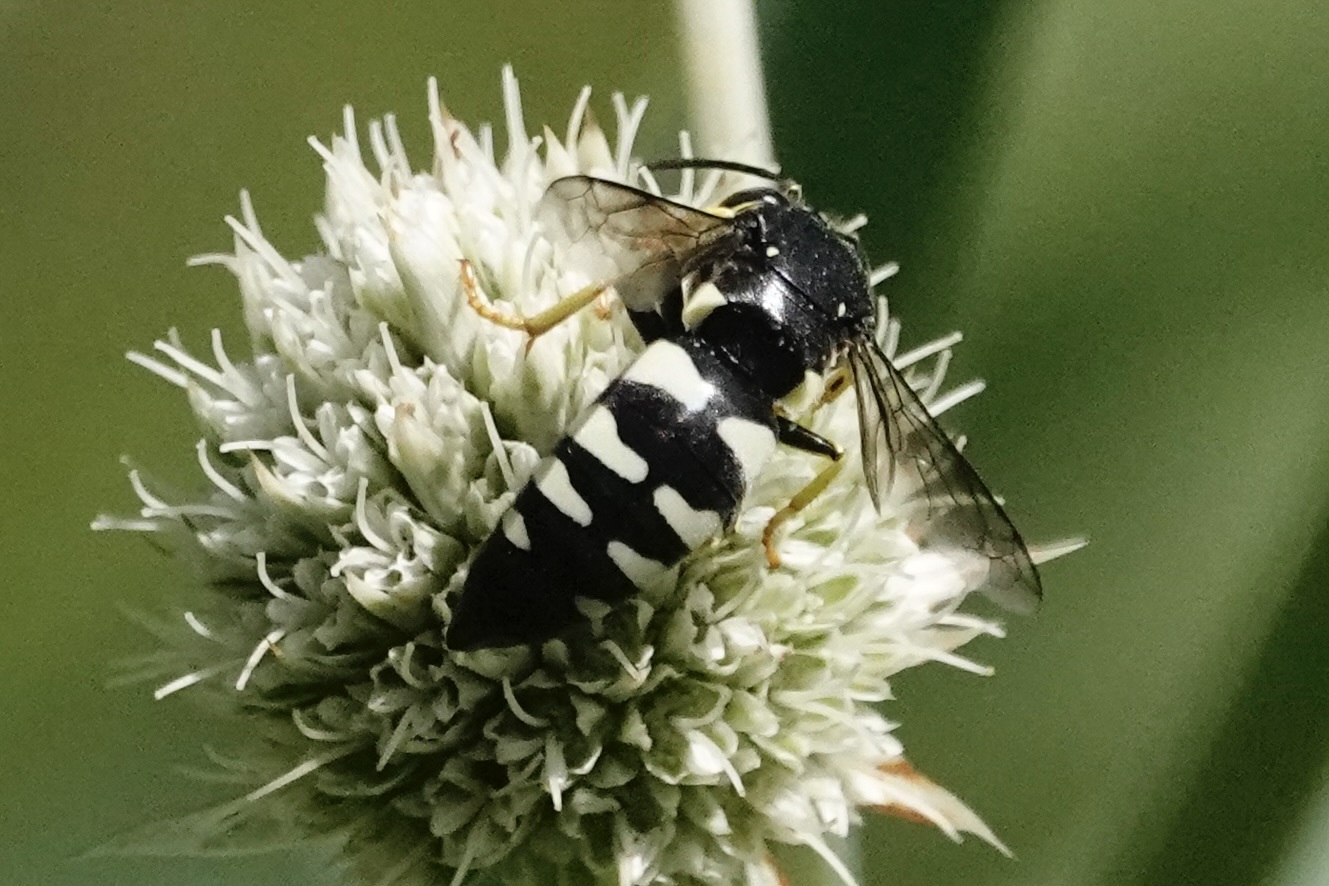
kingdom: Animalia
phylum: Arthropoda
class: Insecta
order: Hymenoptera
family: Crabronidae
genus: Bicyrtes
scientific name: Bicyrtes quadrifasciatus
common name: Four-banded stink bug hunter wasp
